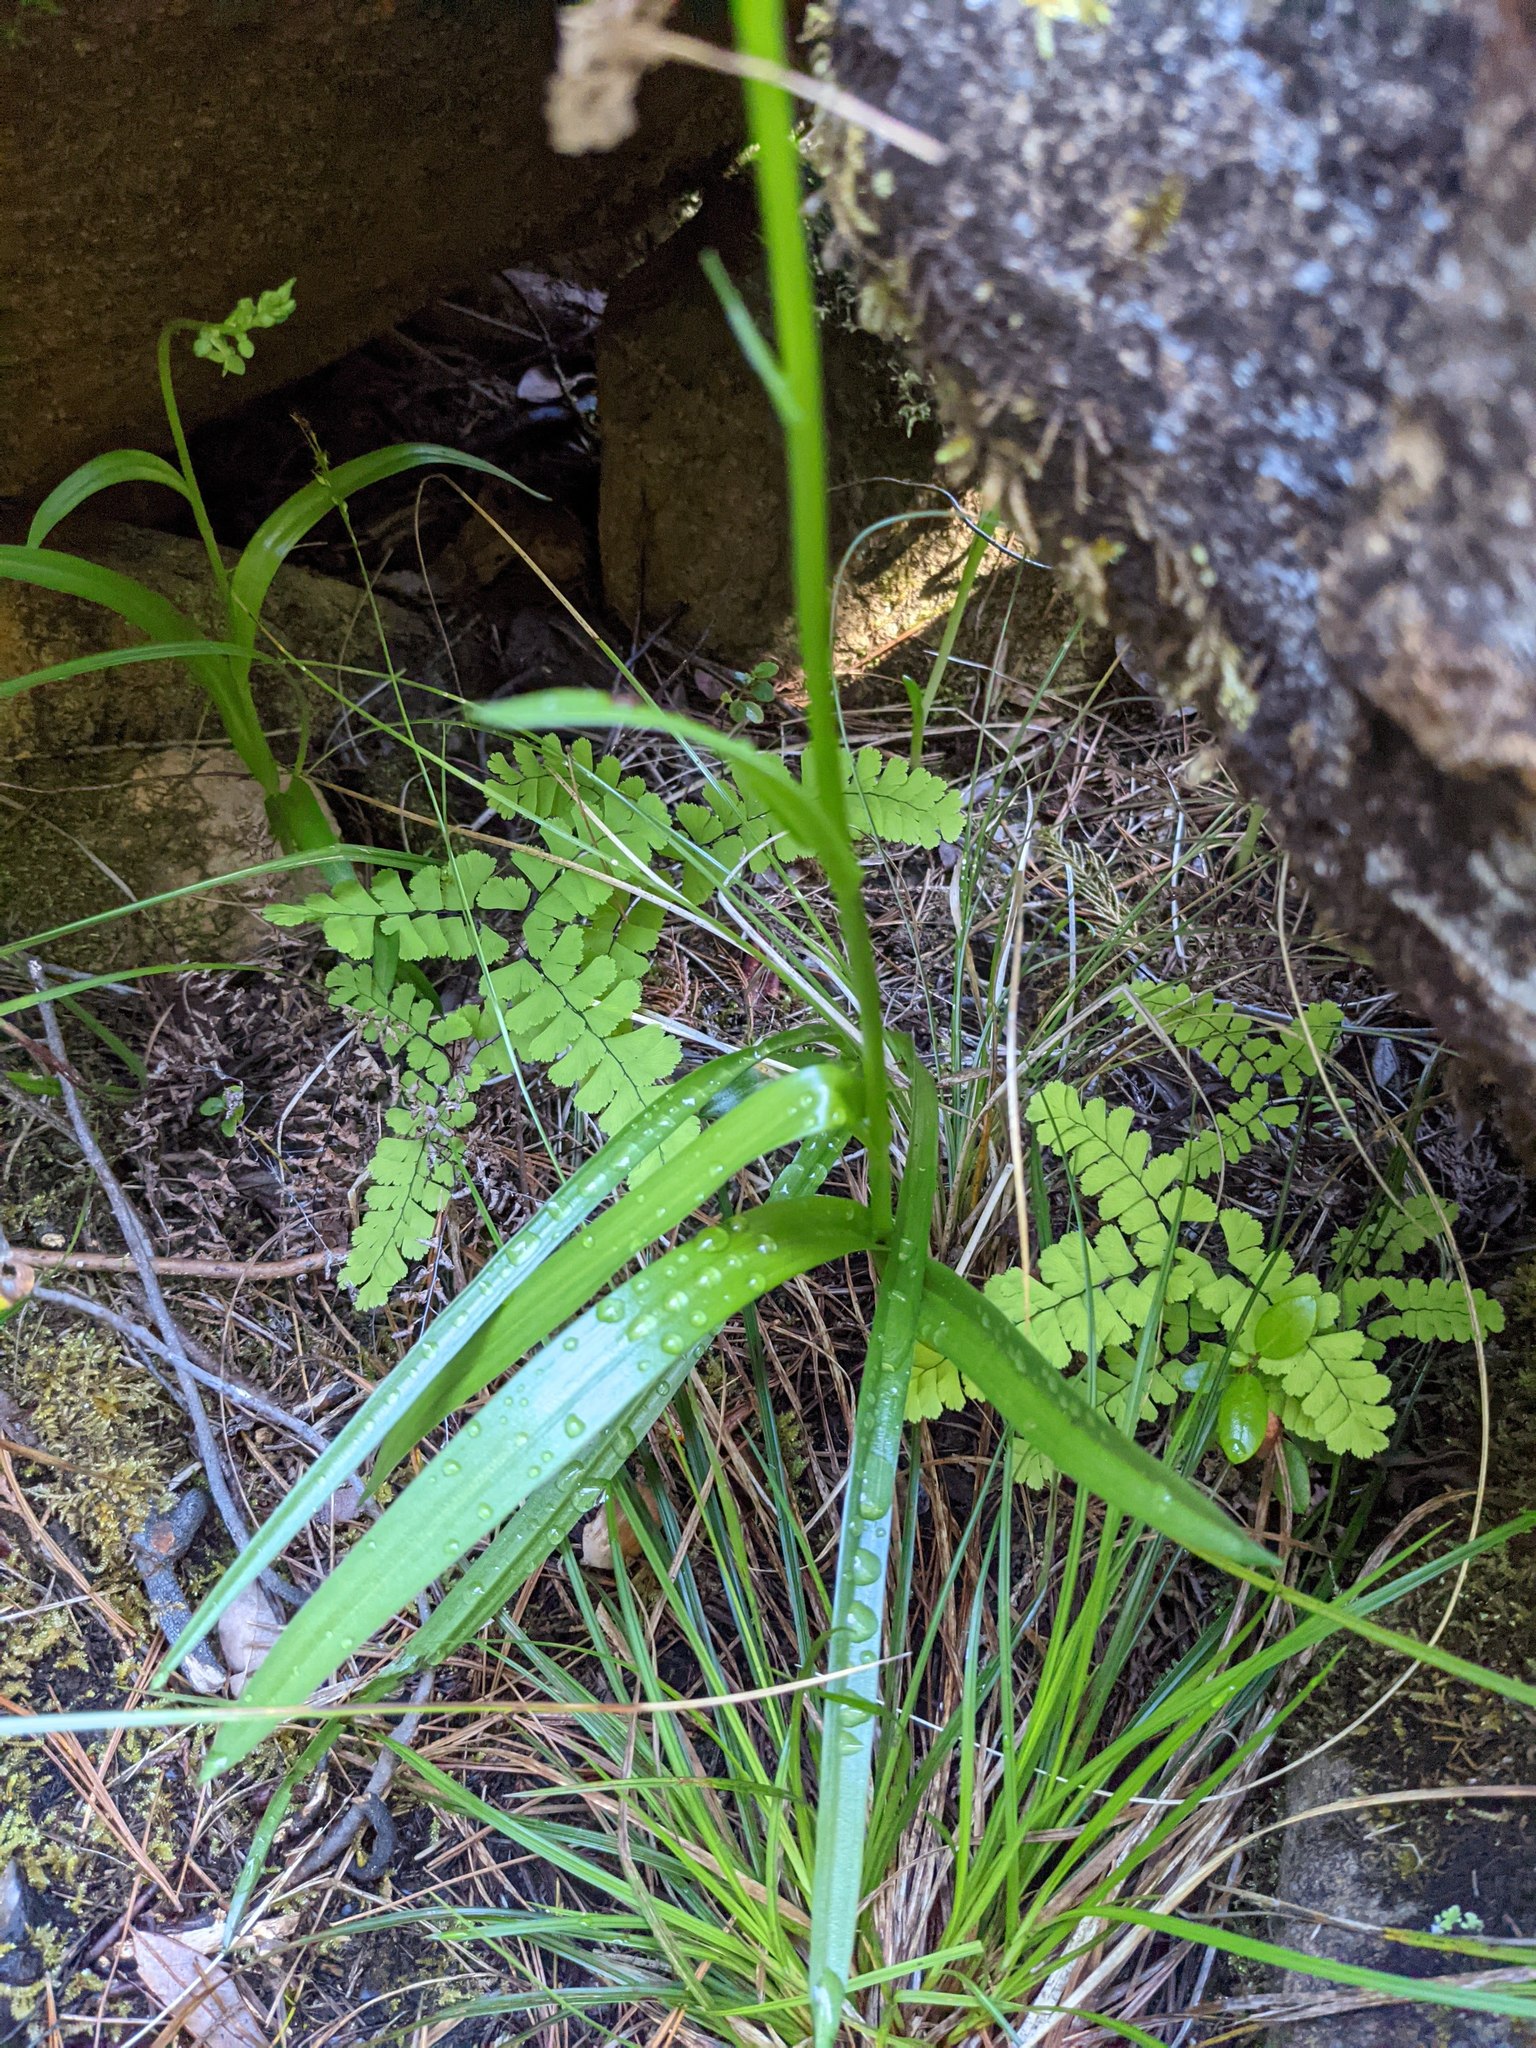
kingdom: Plantae
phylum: Tracheophyta
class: Liliopsida
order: Asparagales
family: Orchidaceae
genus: Platanthera
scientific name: Platanthera sparsiflora
